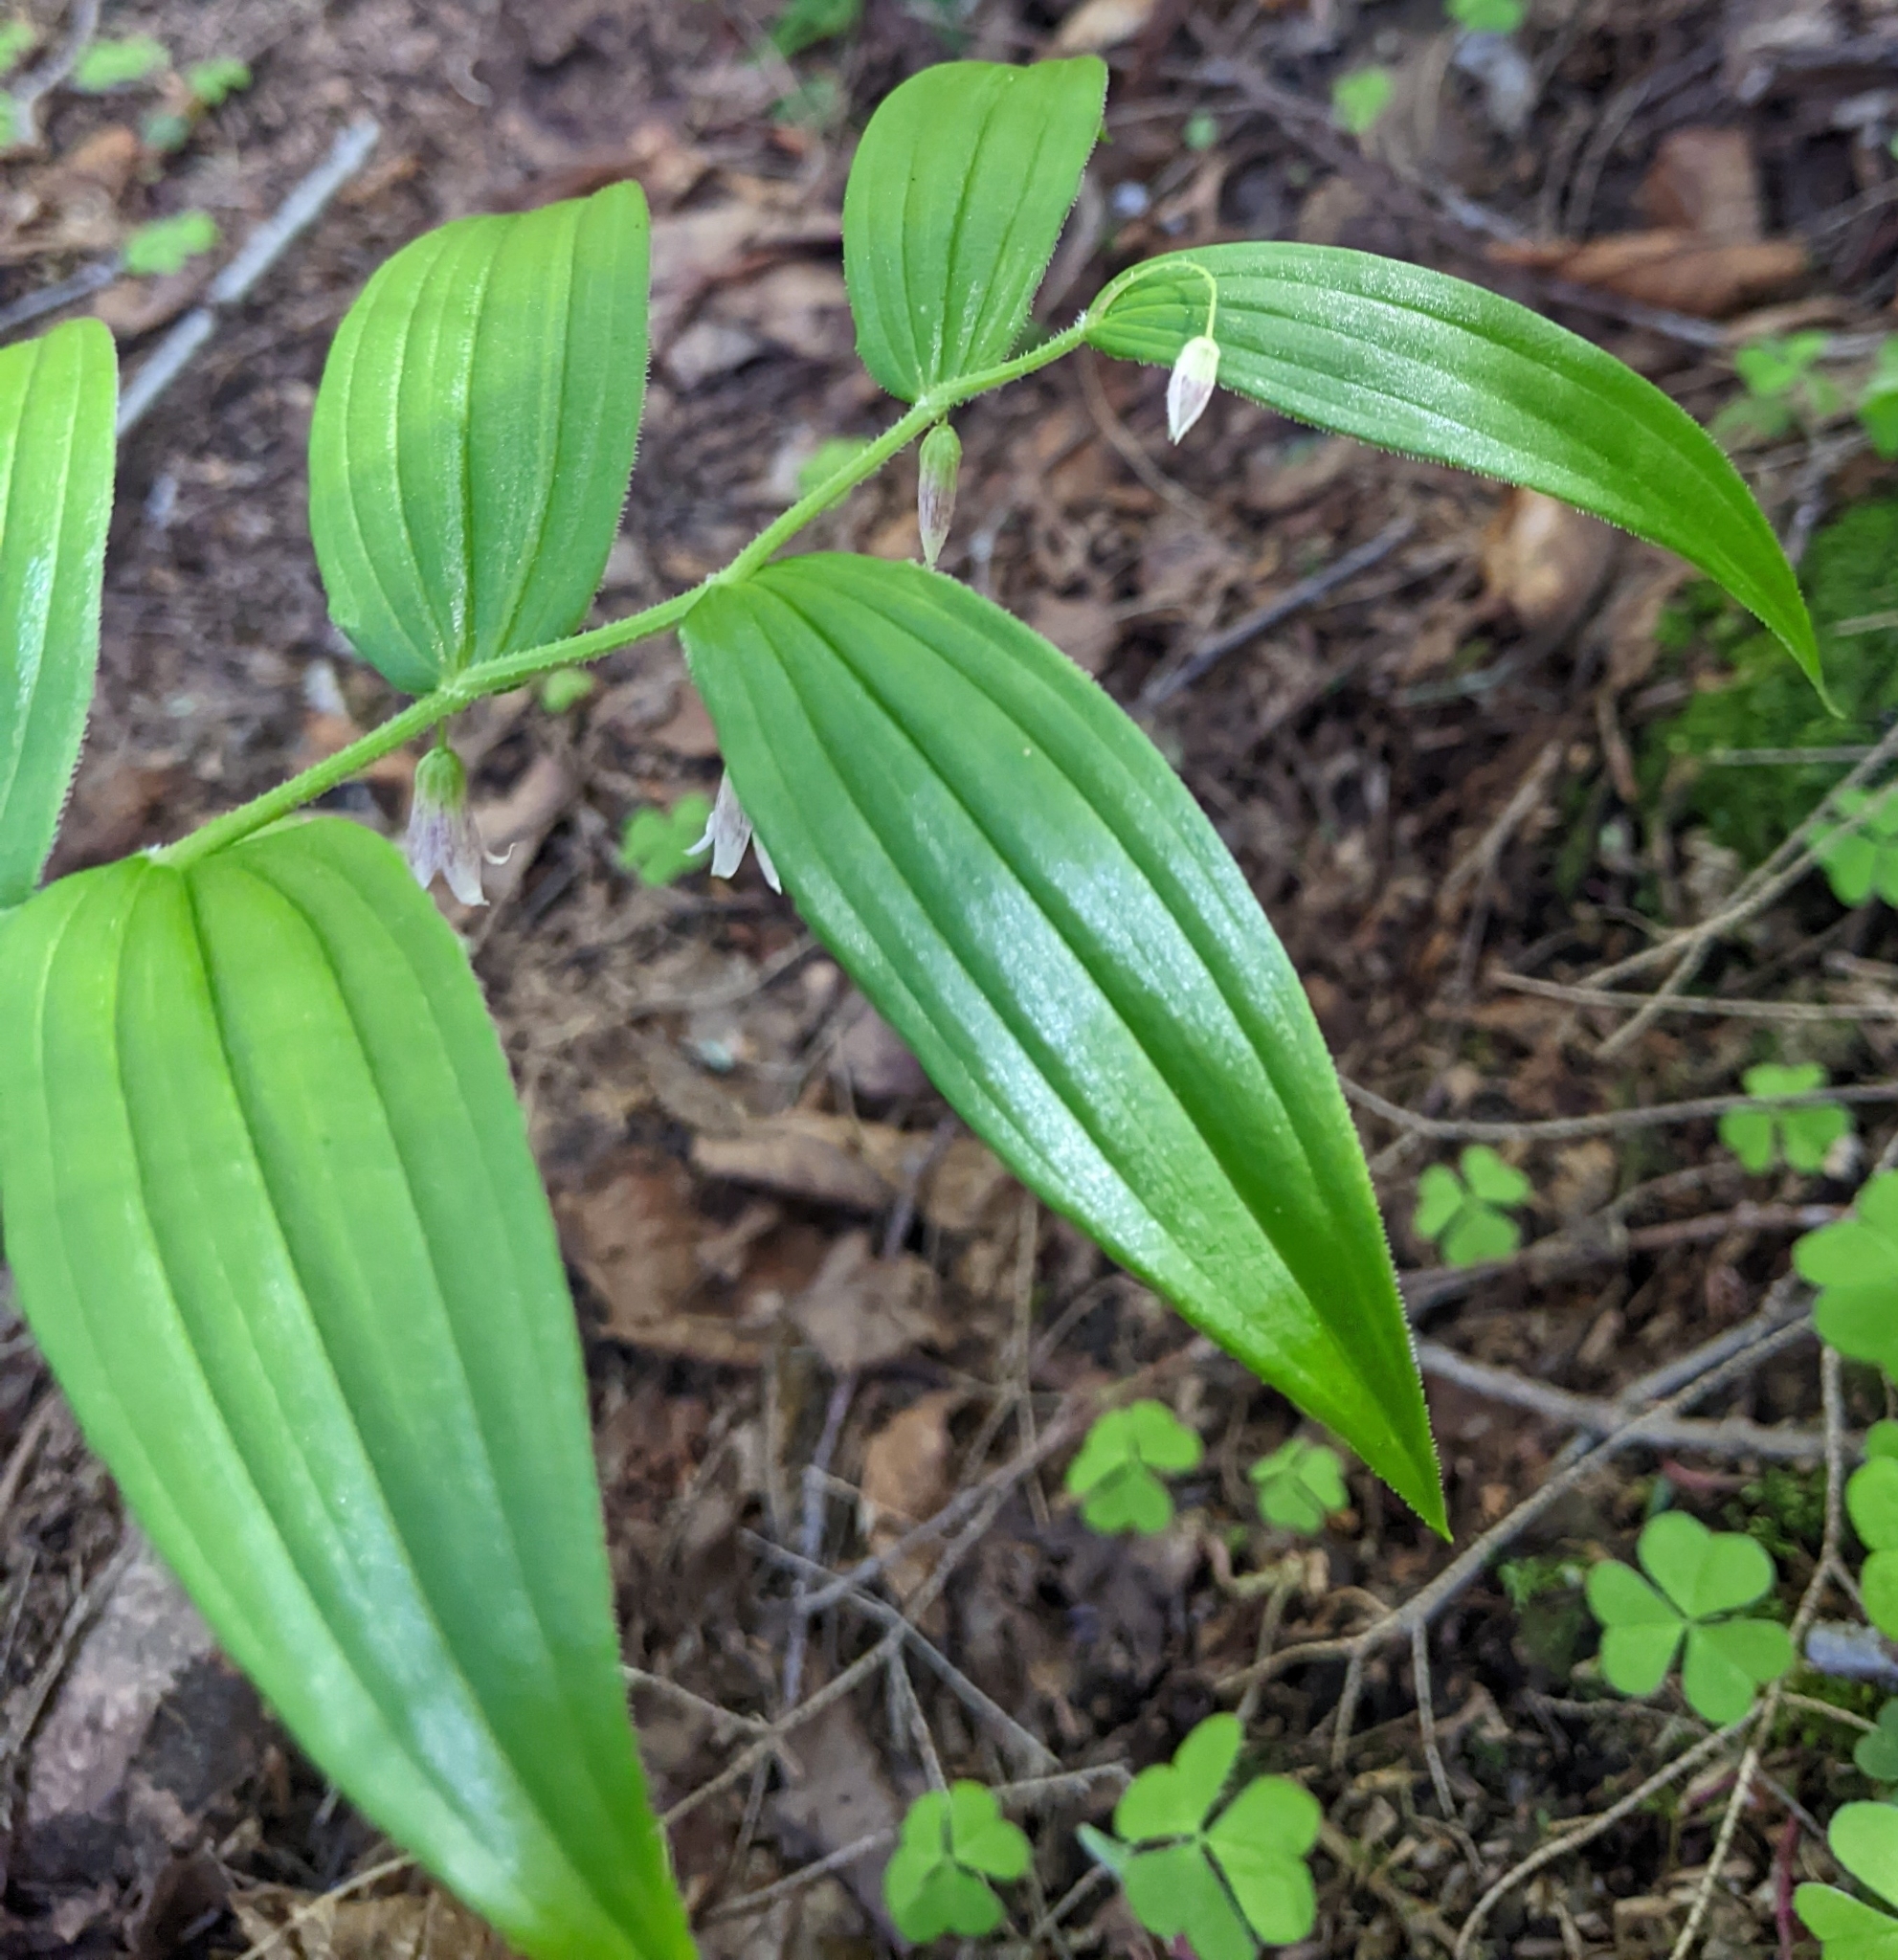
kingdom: Plantae
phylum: Tracheophyta
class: Liliopsida
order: Liliales
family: Liliaceae
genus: Streptopus
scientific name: Streptopus lanceolatus
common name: Rose mandarin
